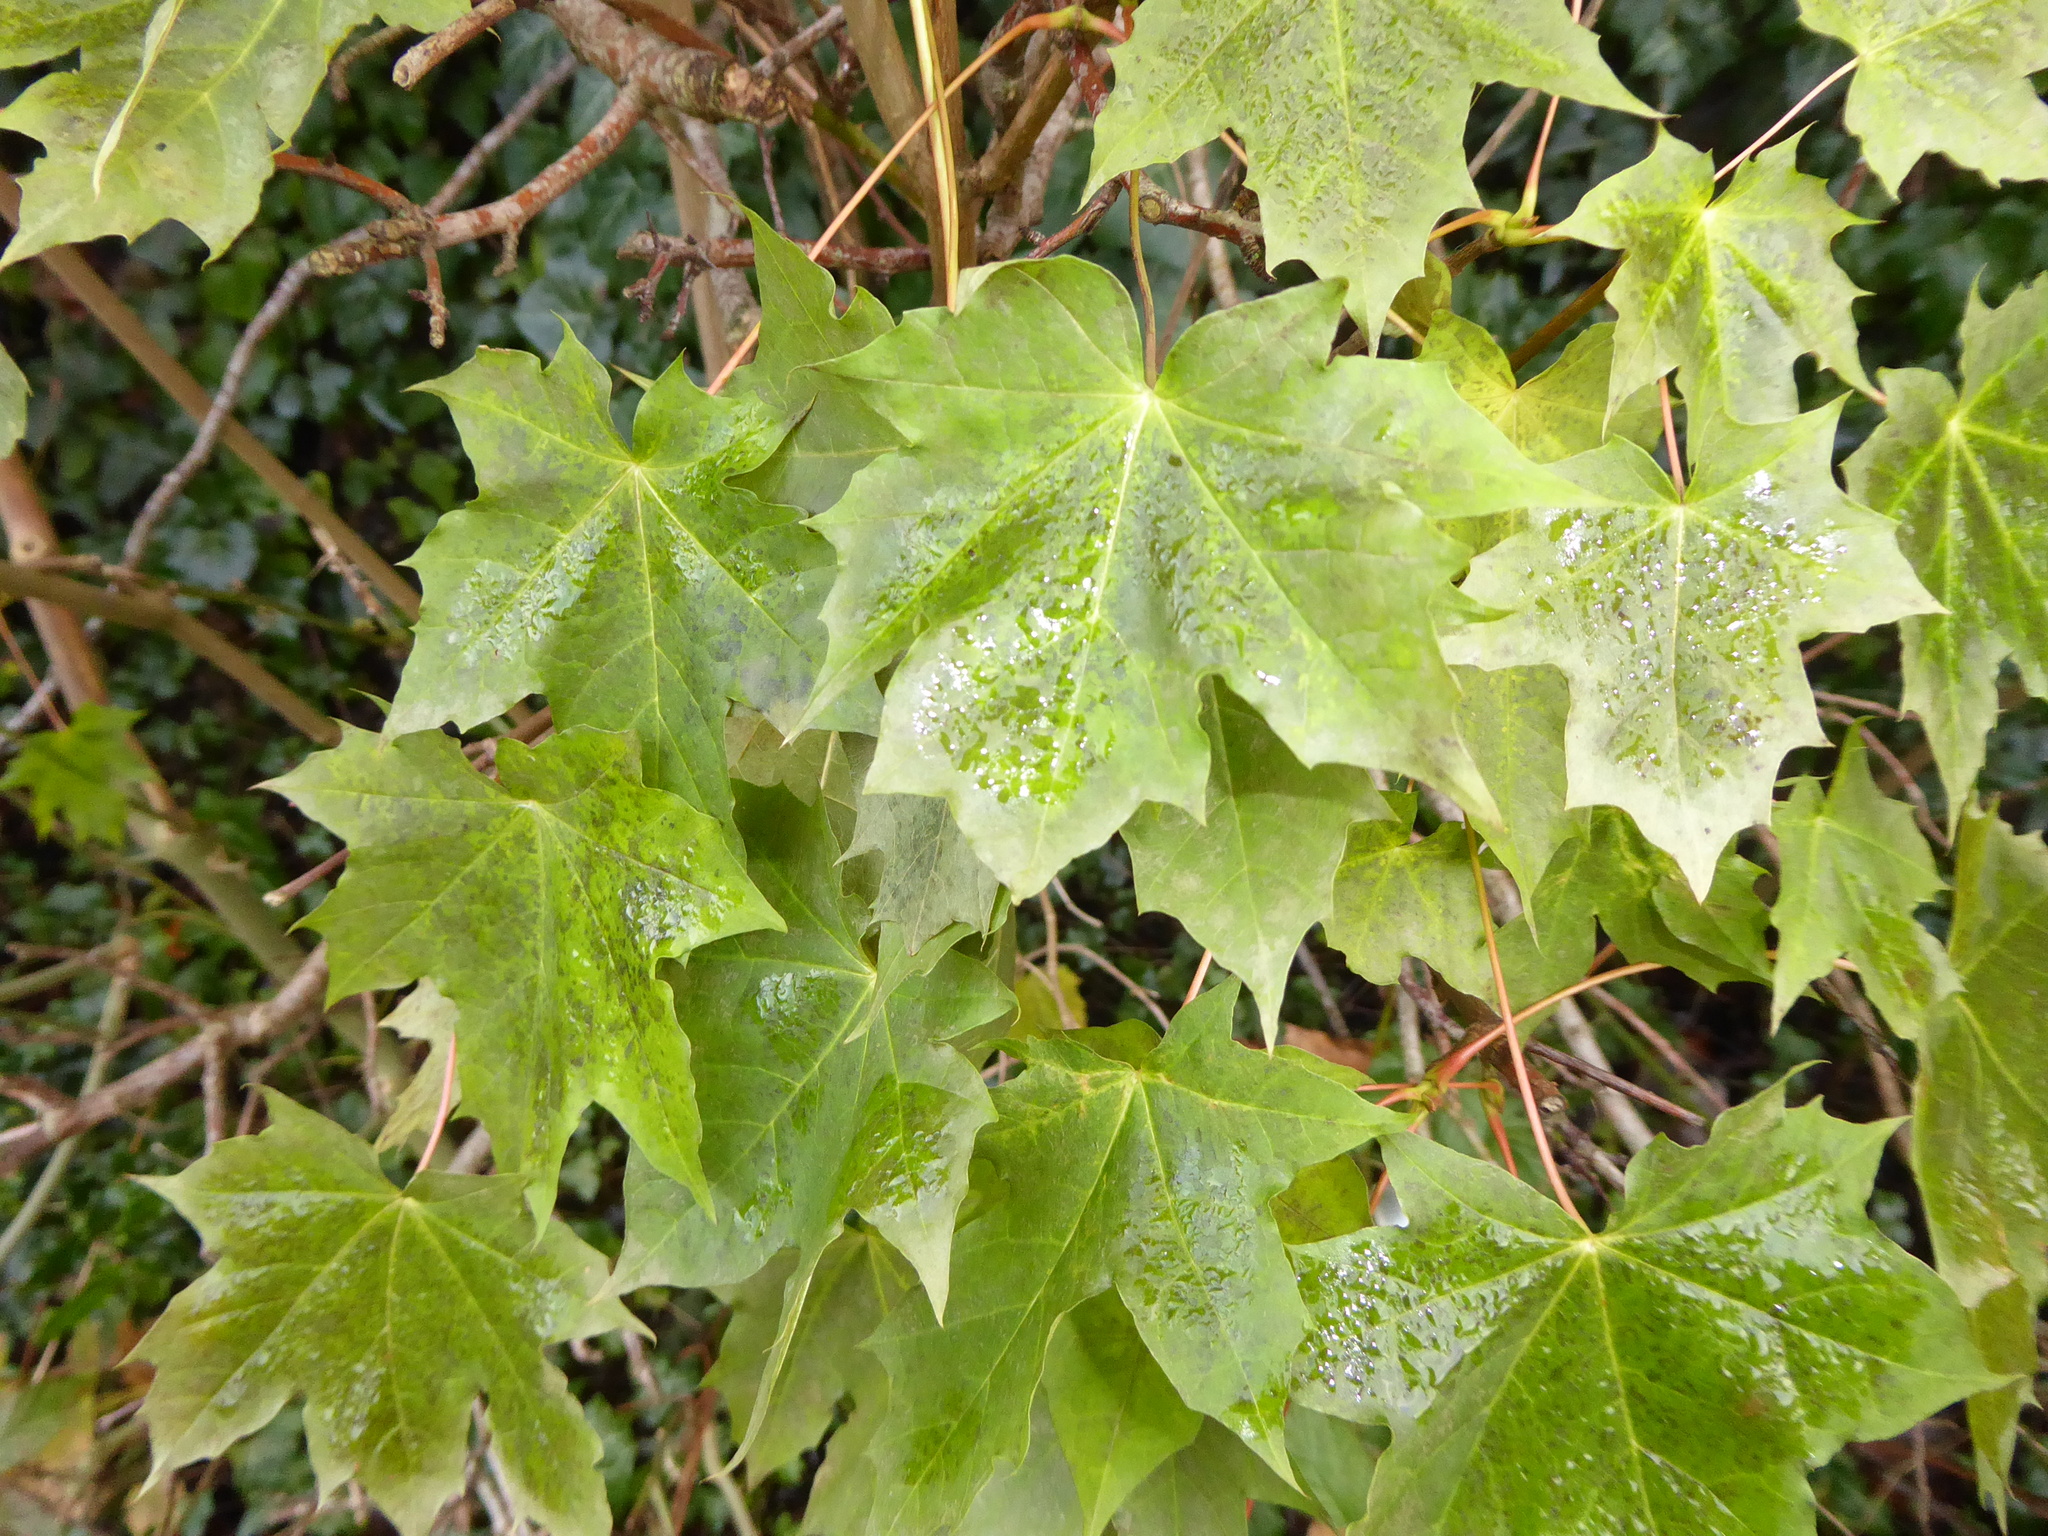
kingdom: Plantae
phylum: Tracheophyta
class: Magnoliopsida
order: Sapindales
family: Sapindaceae
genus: Acer
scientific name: Acer platanoides
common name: Norway maple
